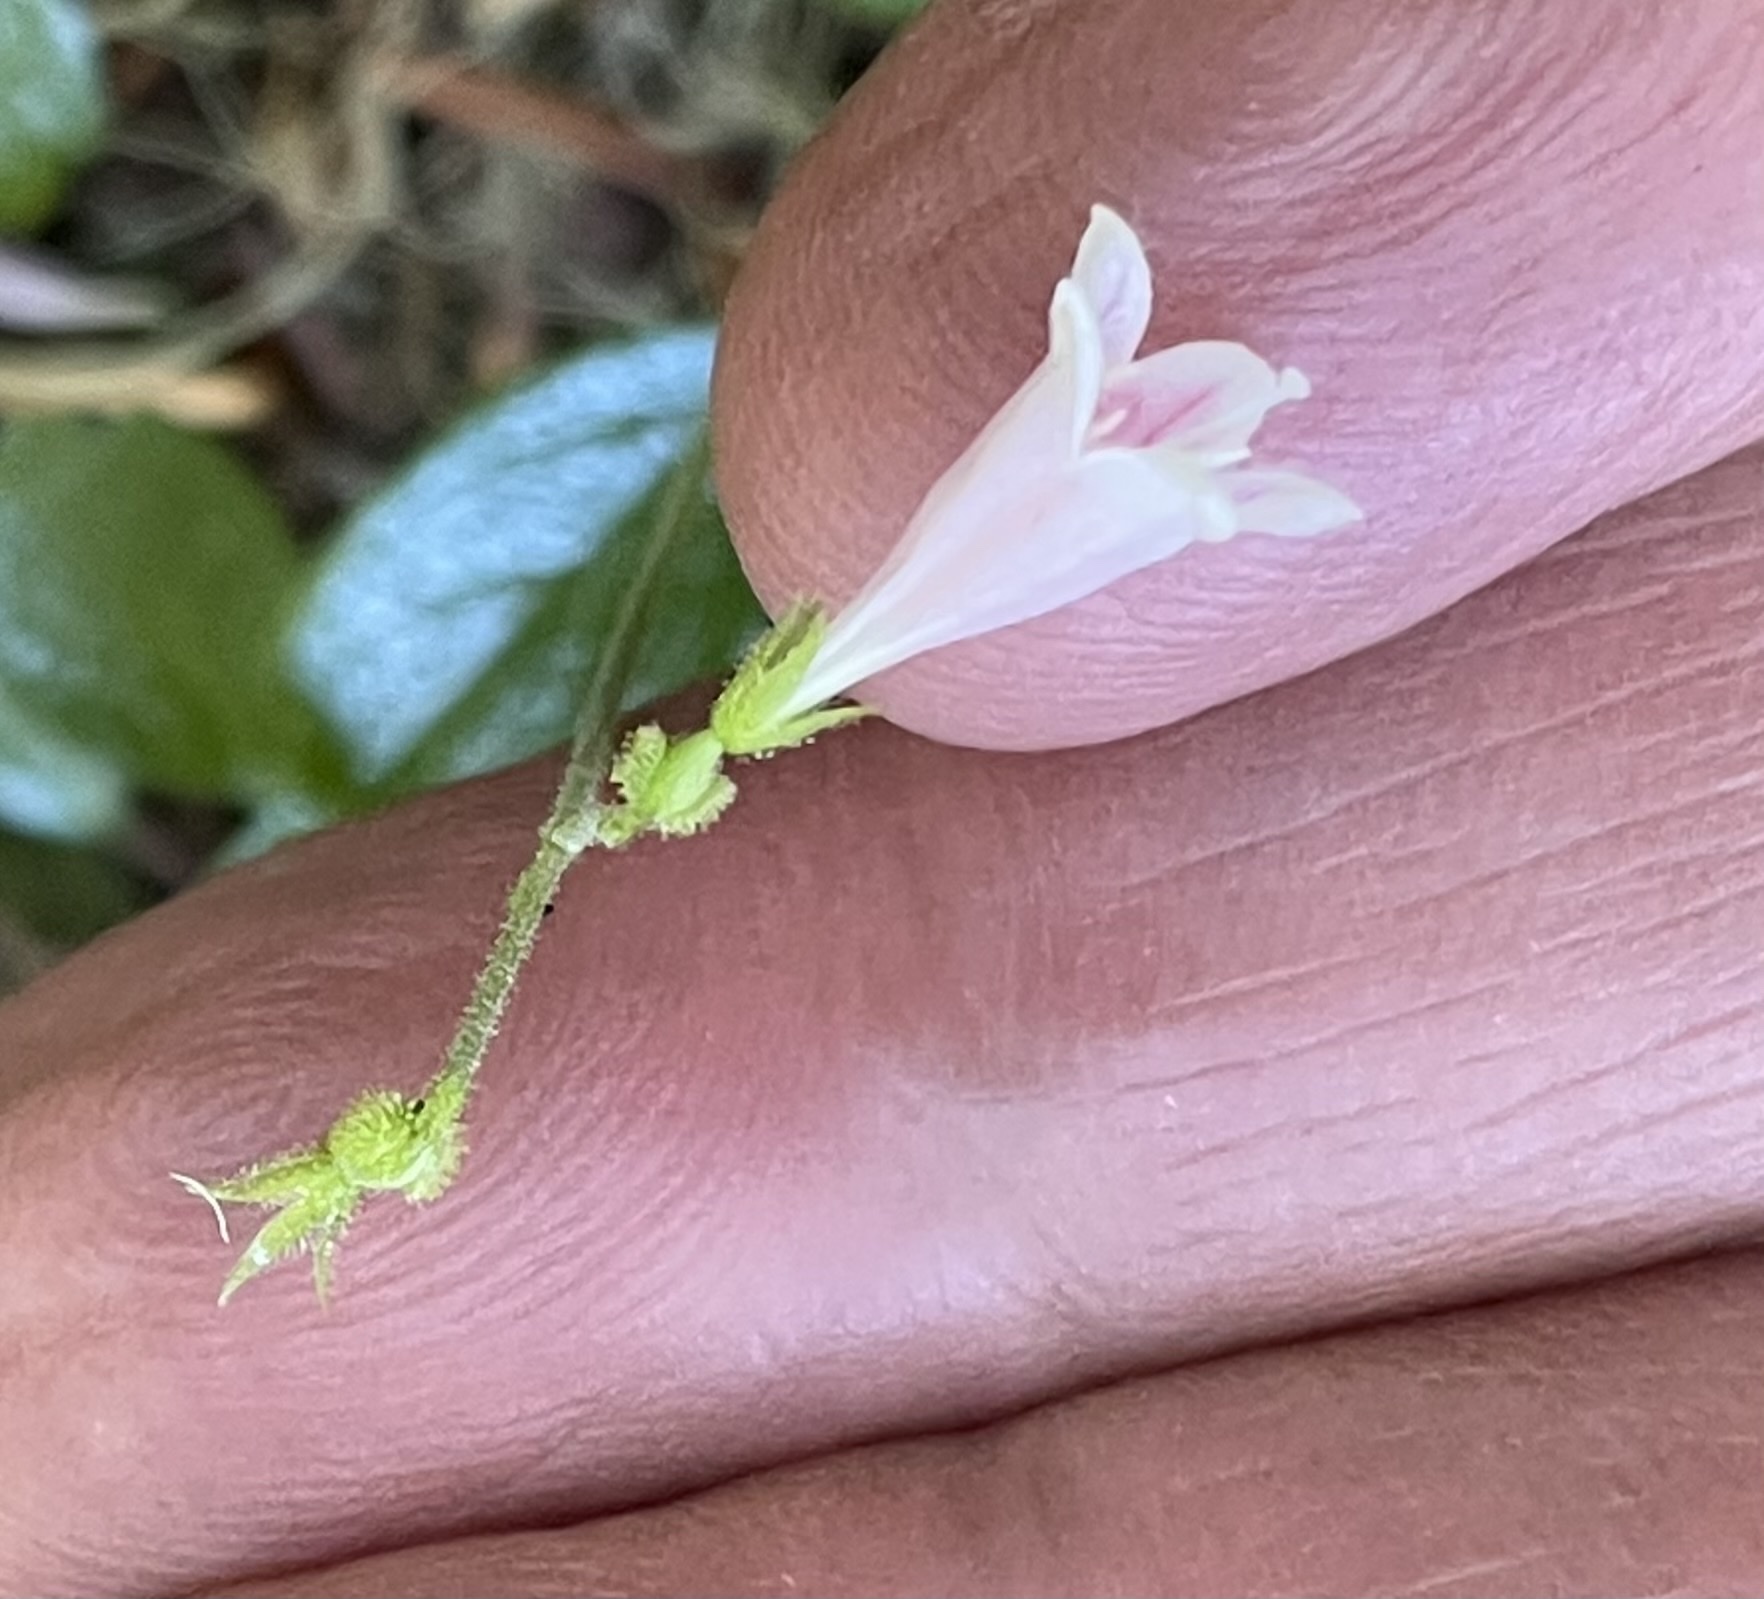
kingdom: Plantae
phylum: Tracheophyta
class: Magnoliopsida
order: Dipsacales
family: Caprifoliaceae
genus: Linnaea
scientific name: Linnaea borealis
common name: Twinflower
